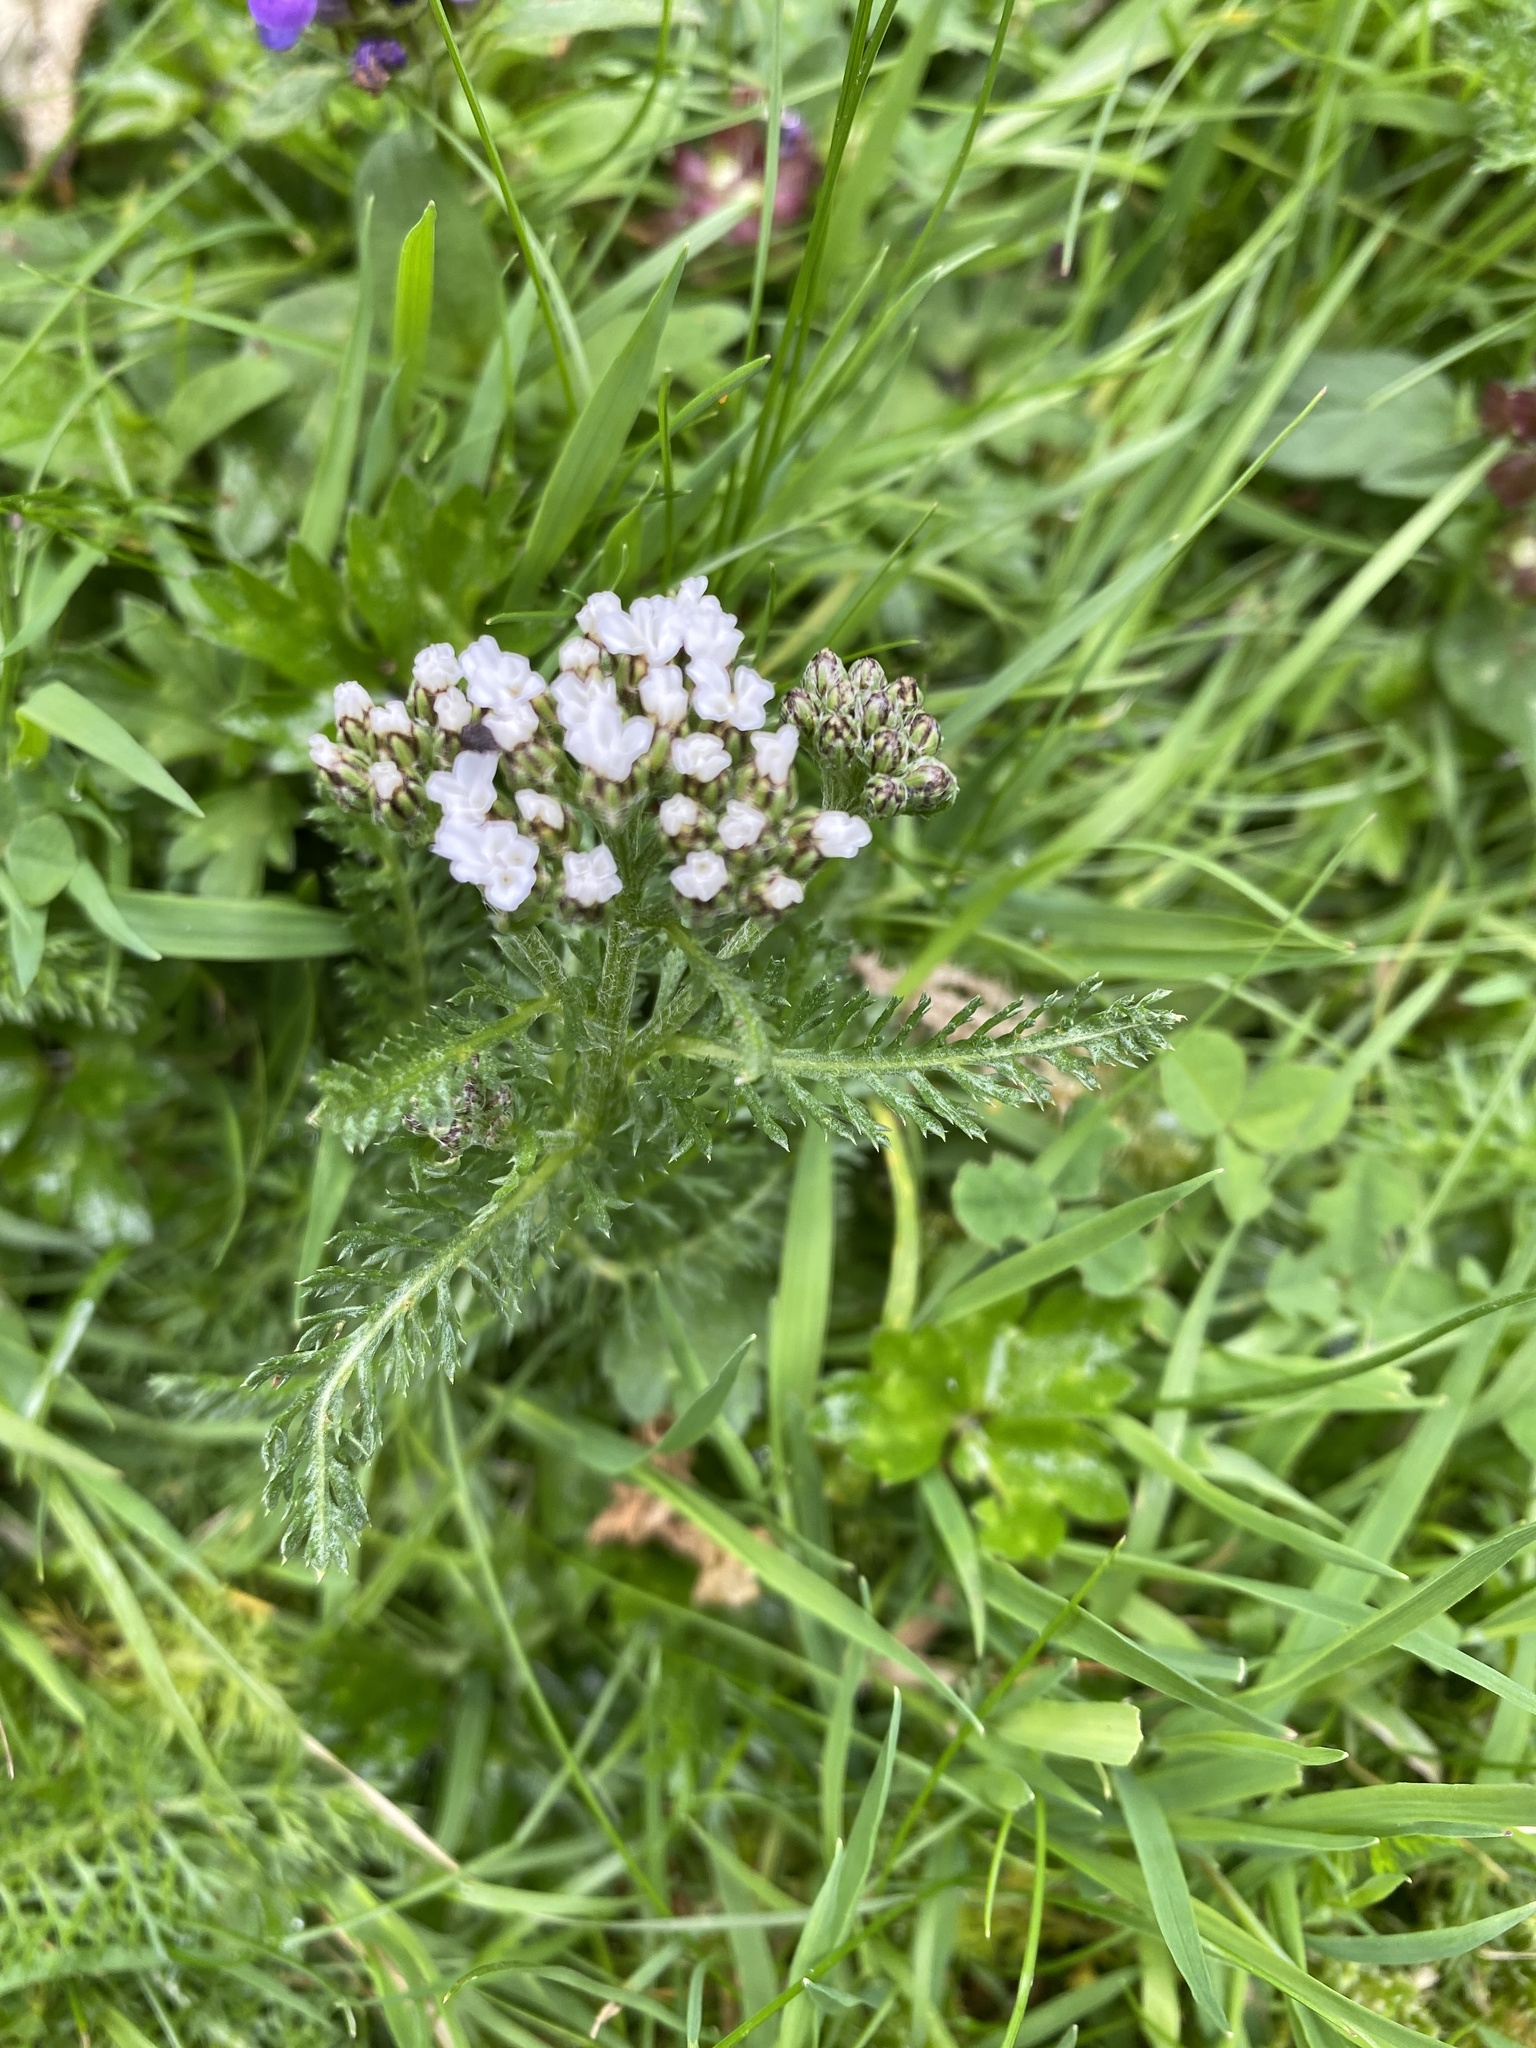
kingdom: Plantae
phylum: Tracheophyta
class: Magnoliopsida
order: Asterales
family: Asteraceae
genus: Achillea
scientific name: Achillea millefolium
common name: Yarrow
